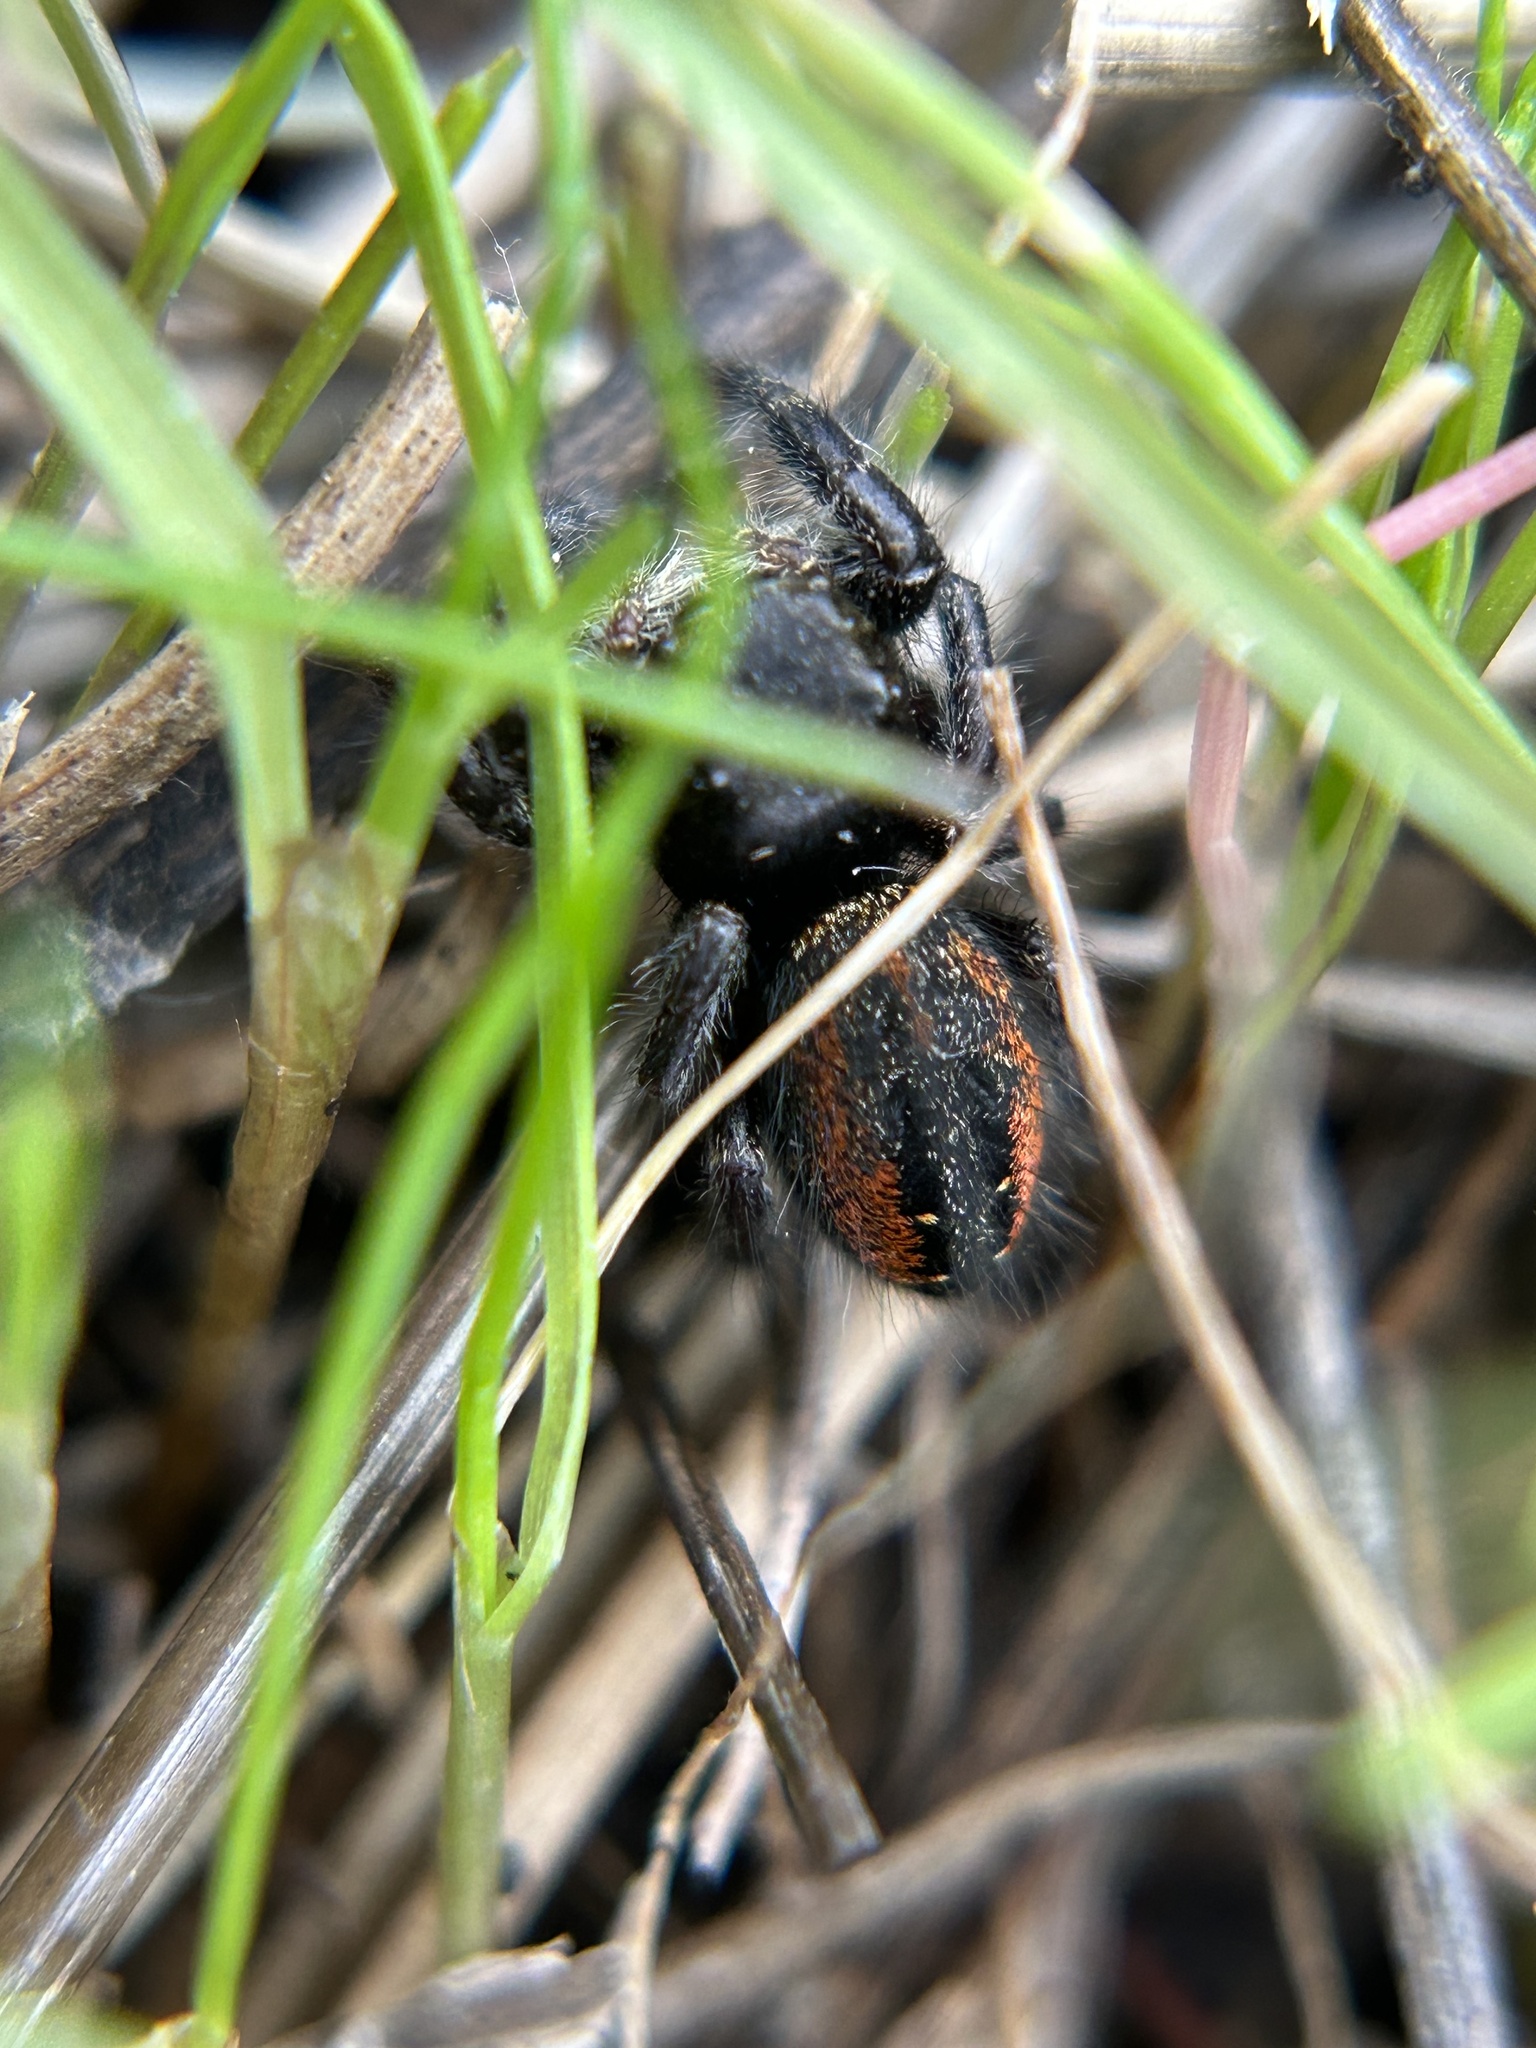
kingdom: Animalia
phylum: Arthropoda
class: Arachnida
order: Araneae
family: Salticidae
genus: Phidippus
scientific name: Phidippus johnsoni
